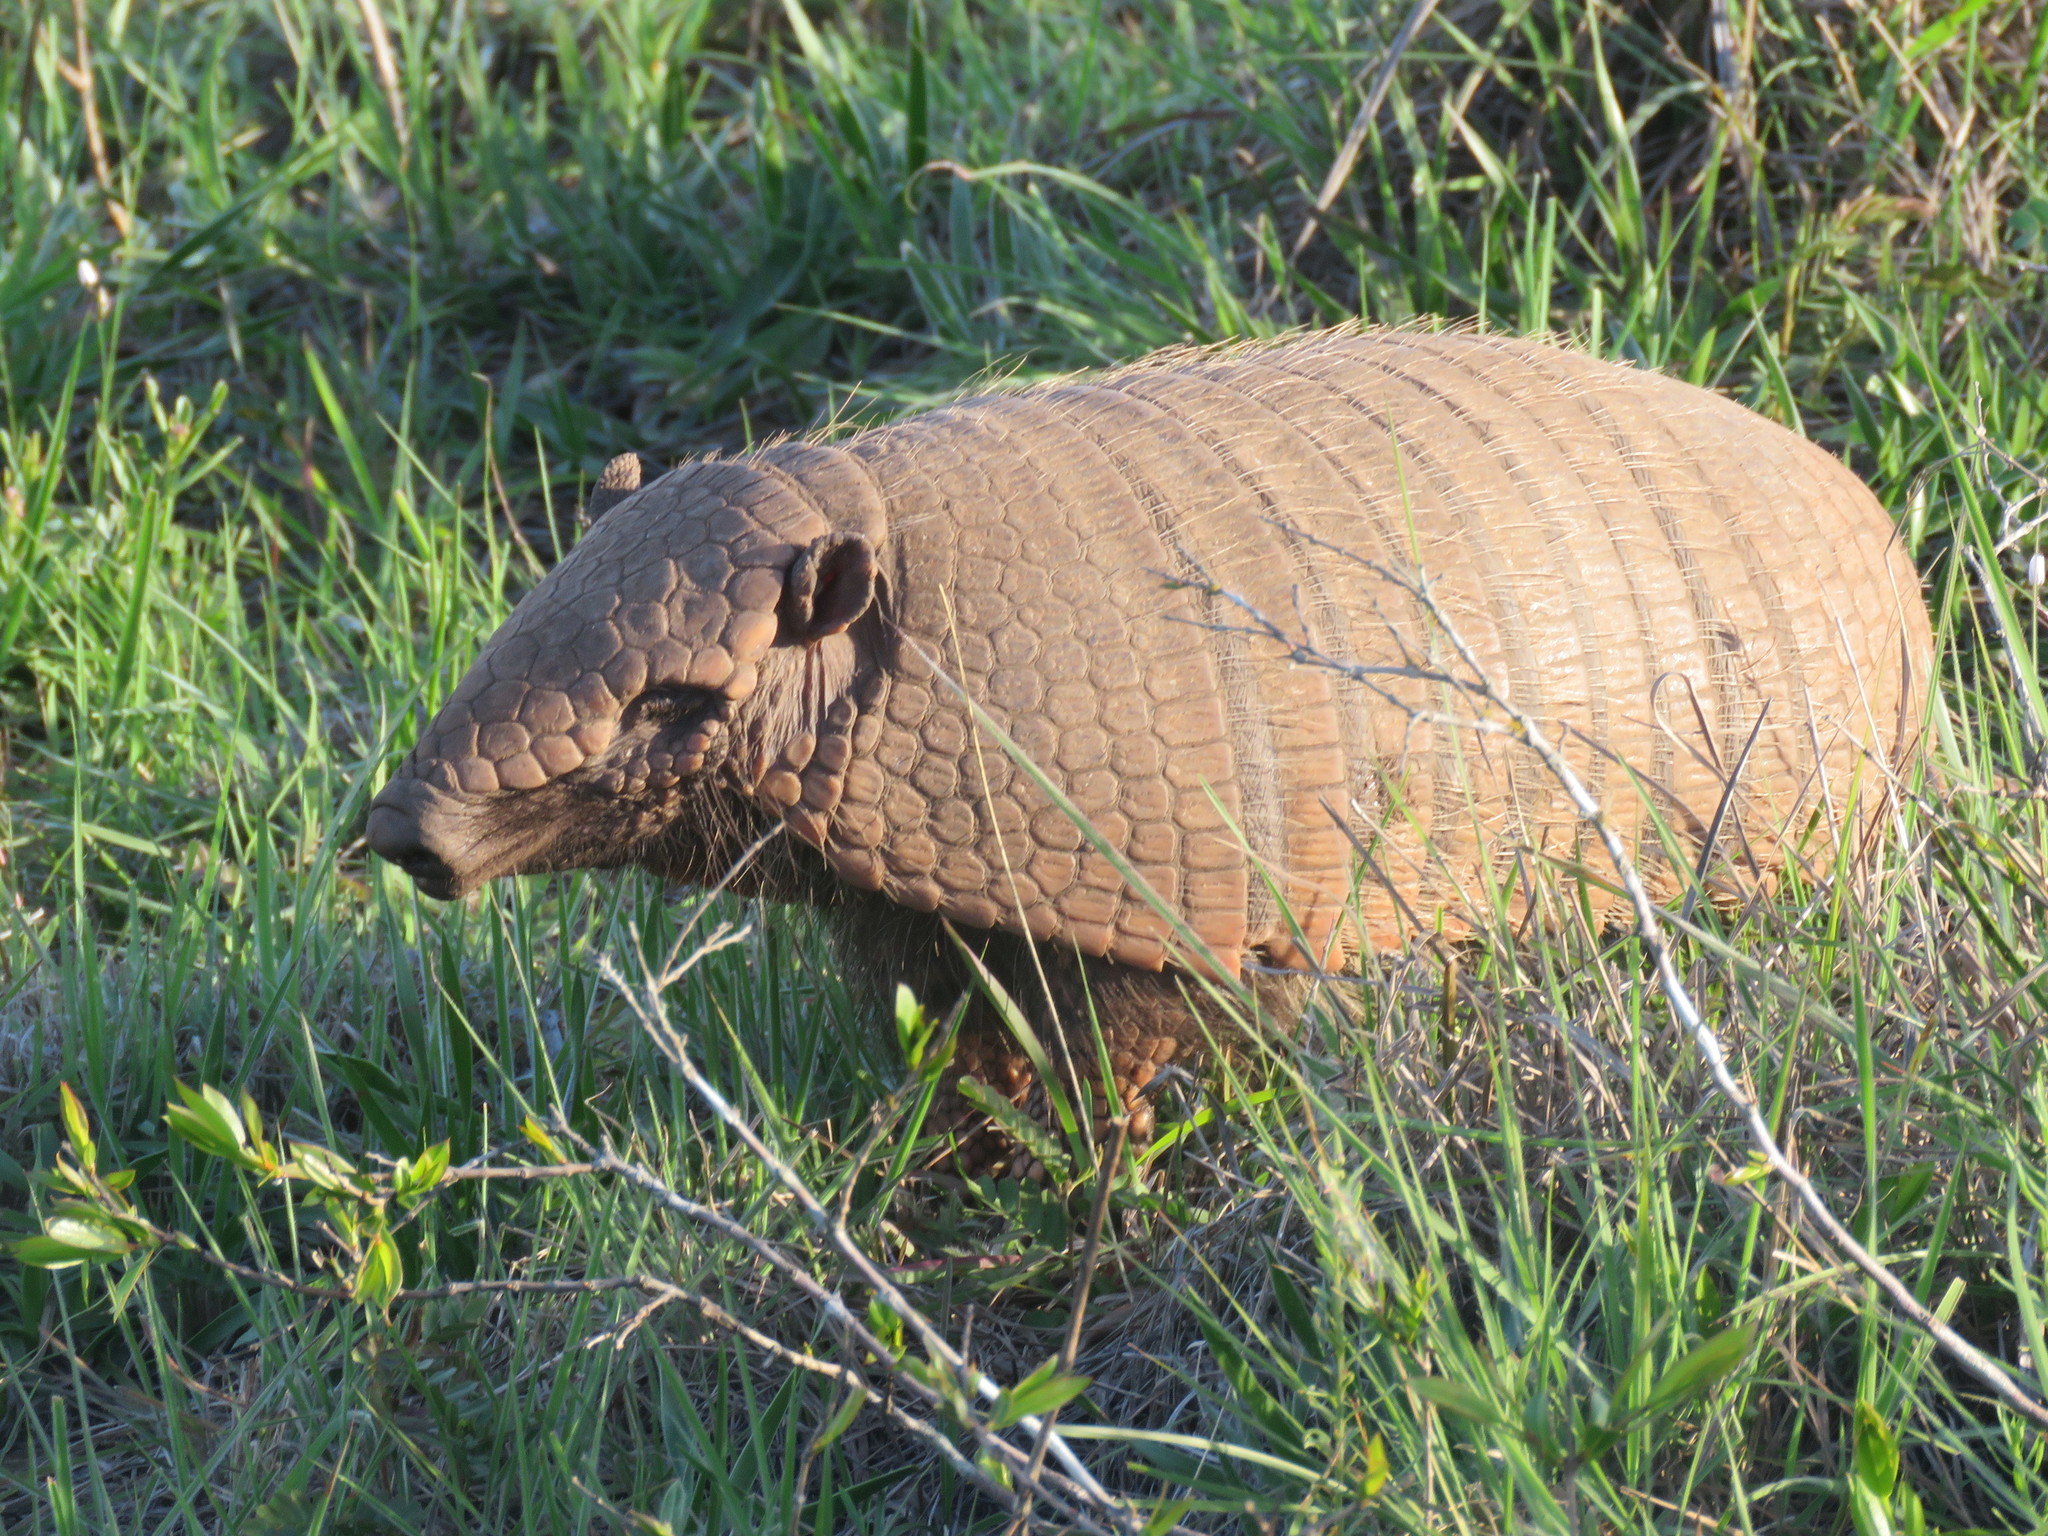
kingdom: Animalia
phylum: Chordata
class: Mammalia
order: Cingulata
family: Dasypodidae
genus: Euphractus
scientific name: Euphractus sexcinctus
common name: Six-banded armadillo
